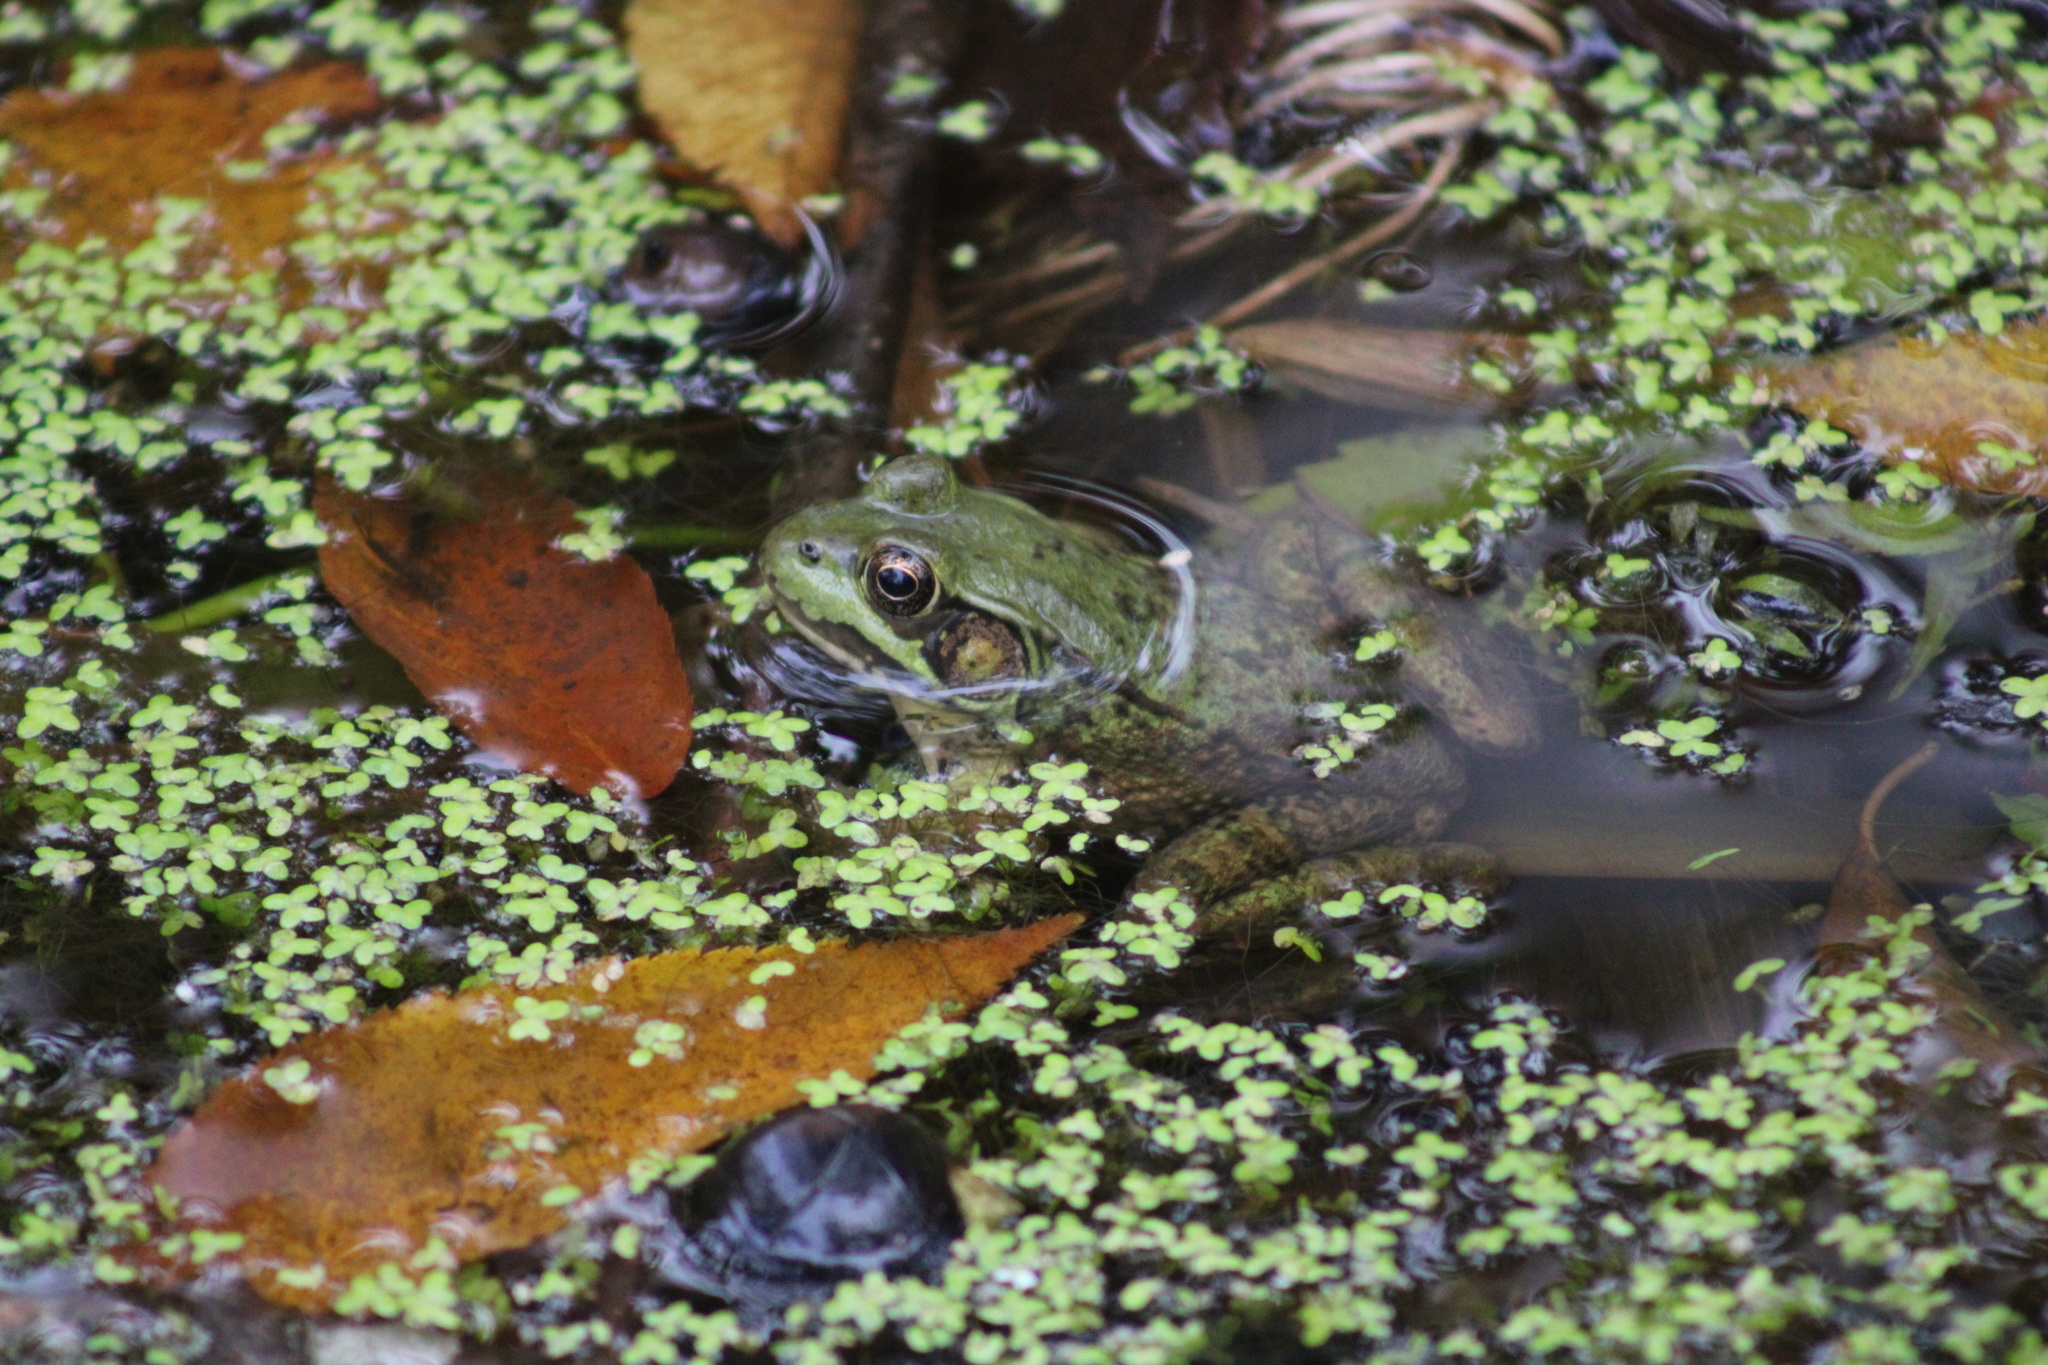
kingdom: Animalia
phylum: Chordata
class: Amphibia
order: Anura
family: Ranidae
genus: Lithobates
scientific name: Lithobates clamitans
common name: Green frog
